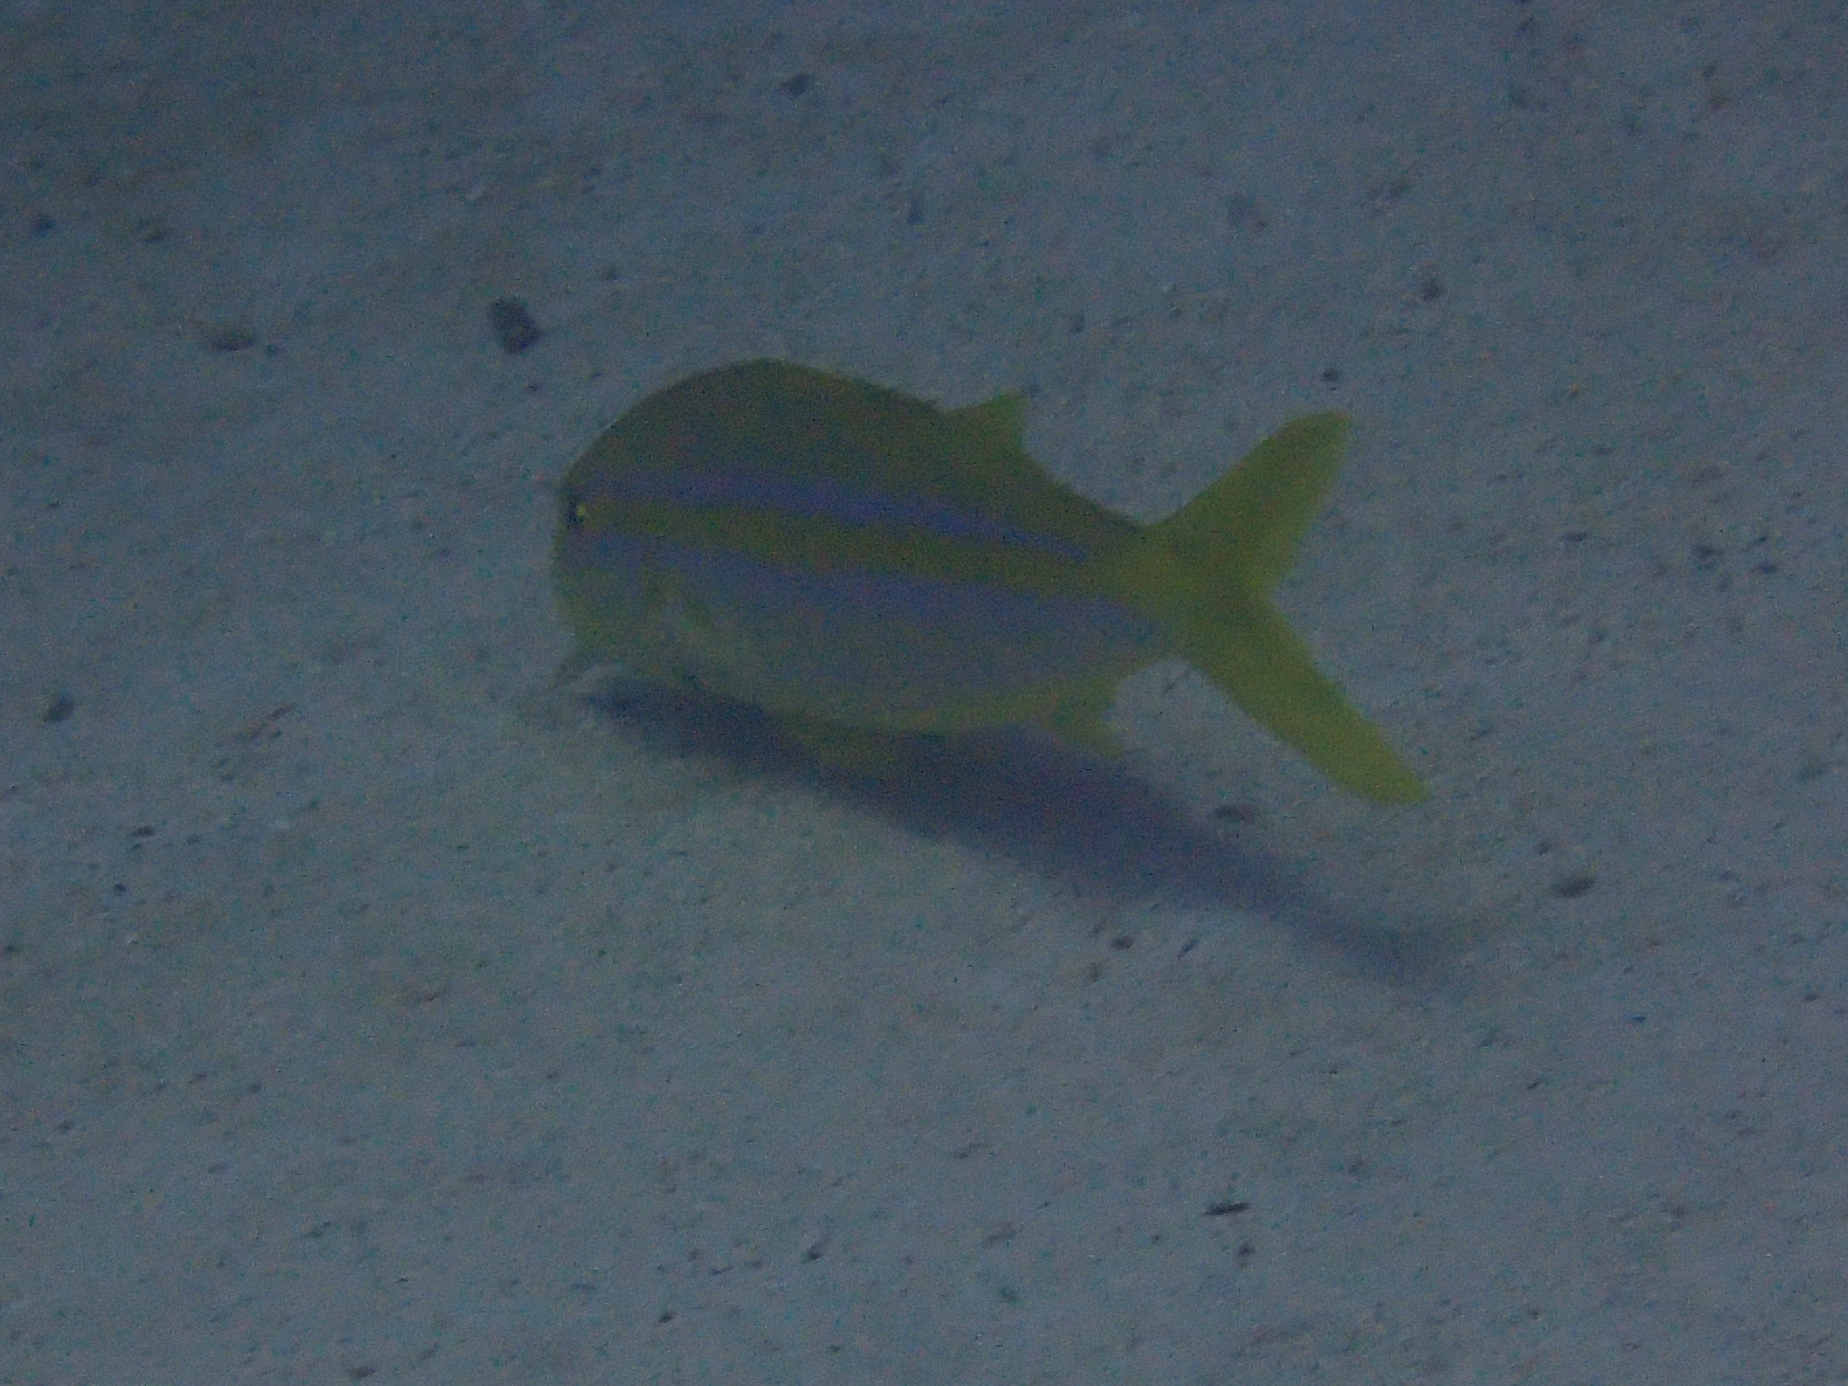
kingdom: Animalia
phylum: Chordata
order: Perciformes
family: Mullidae
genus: Mulloidichthys
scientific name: Mulloidichthys dentatus
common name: Mexican goatfish
